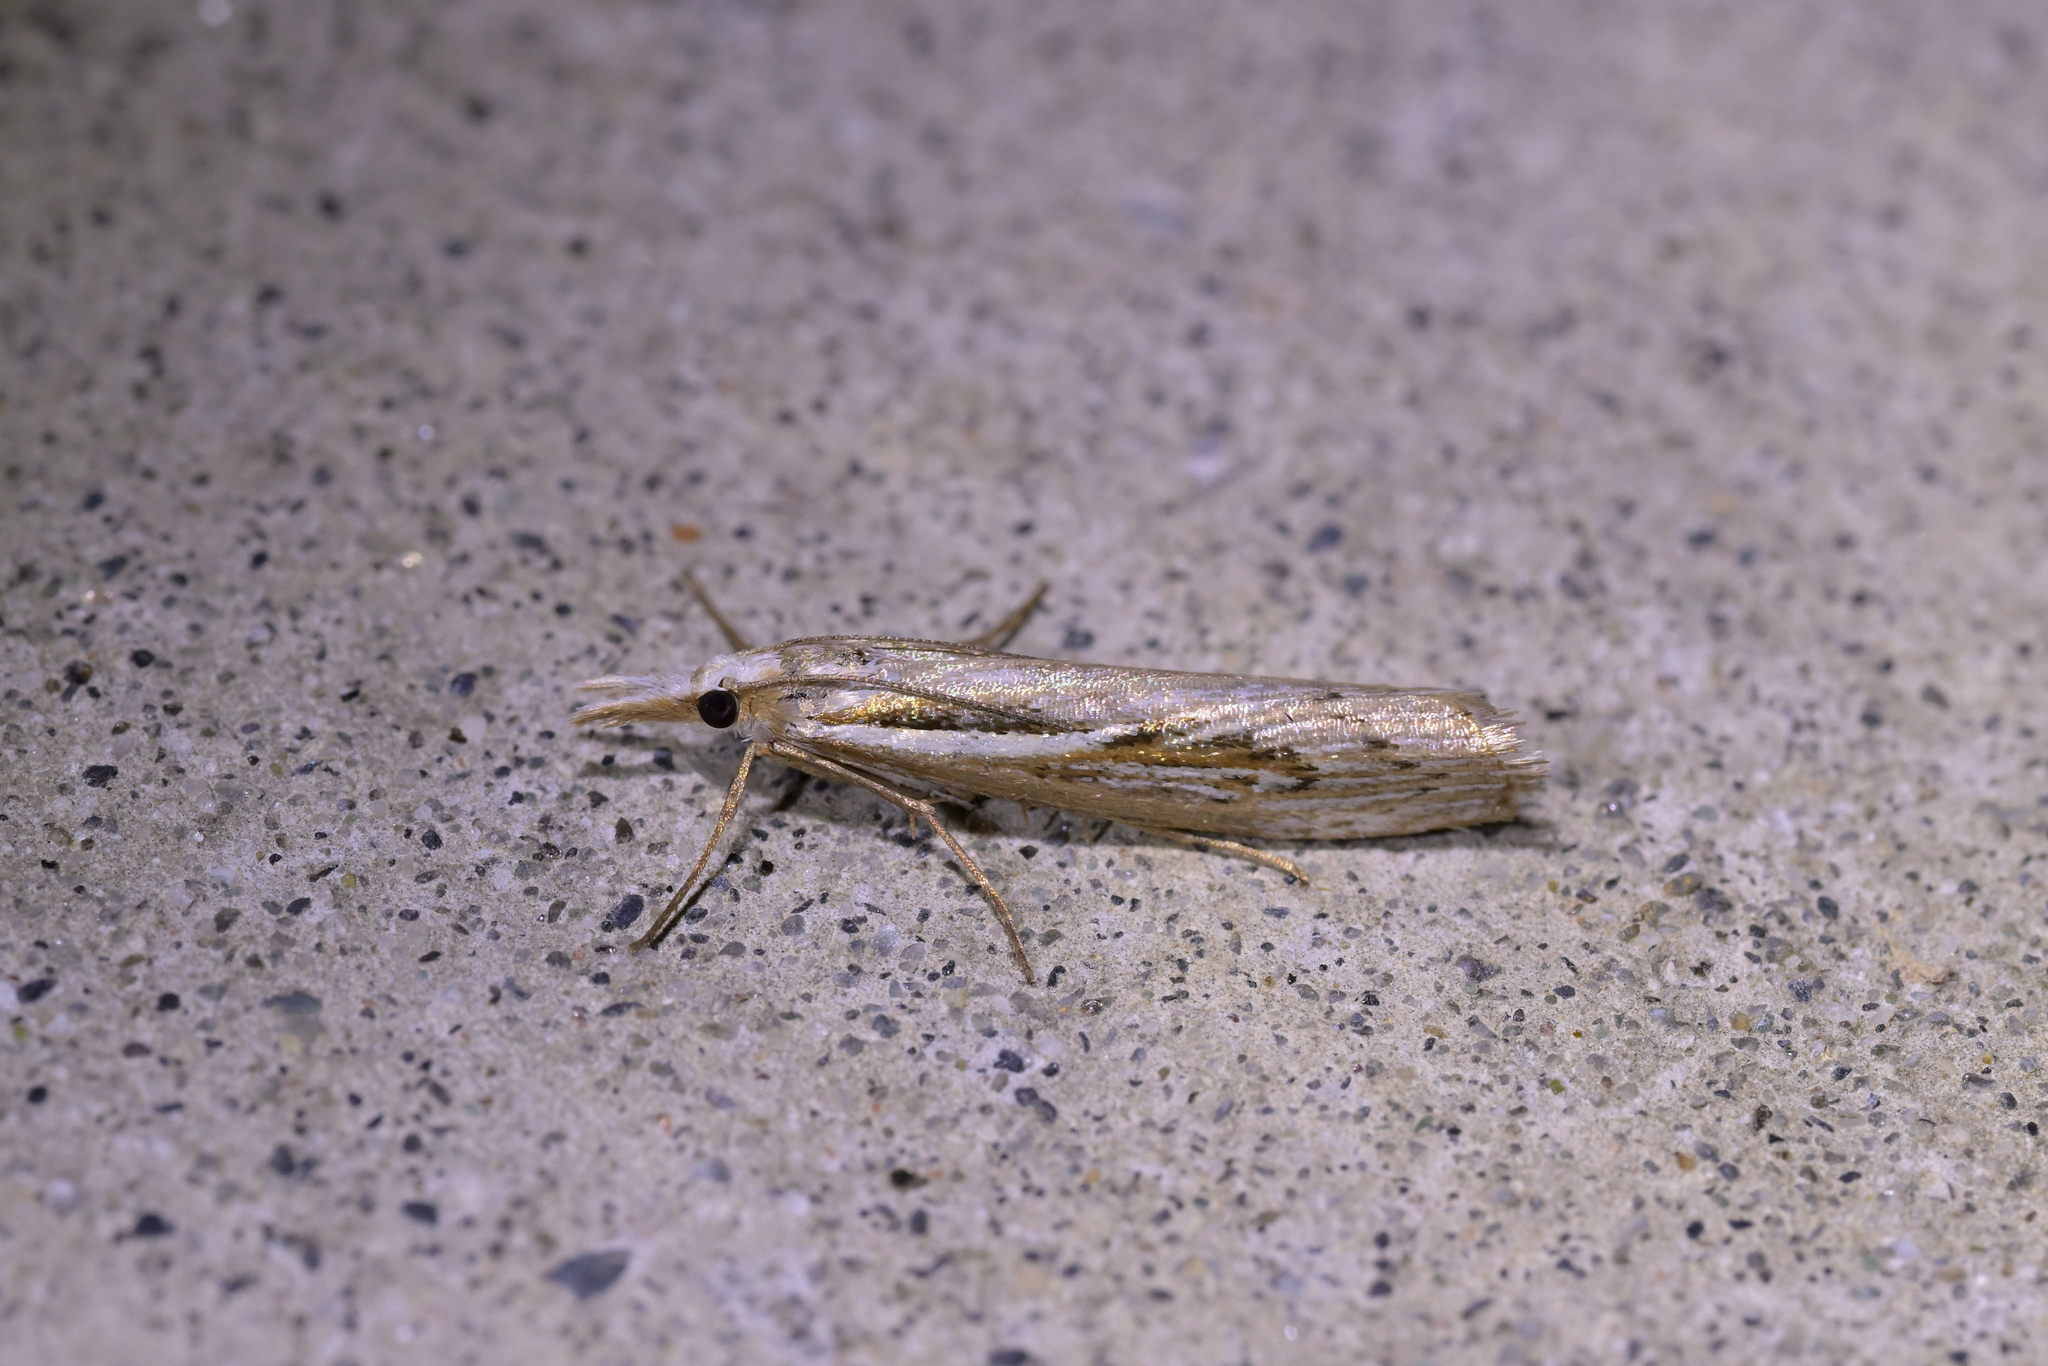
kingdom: Animalia
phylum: Arthropoda
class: Insecta
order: Lepidoptera
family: Crambidae
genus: Orocrambus
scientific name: Orocrambus harpophorus
